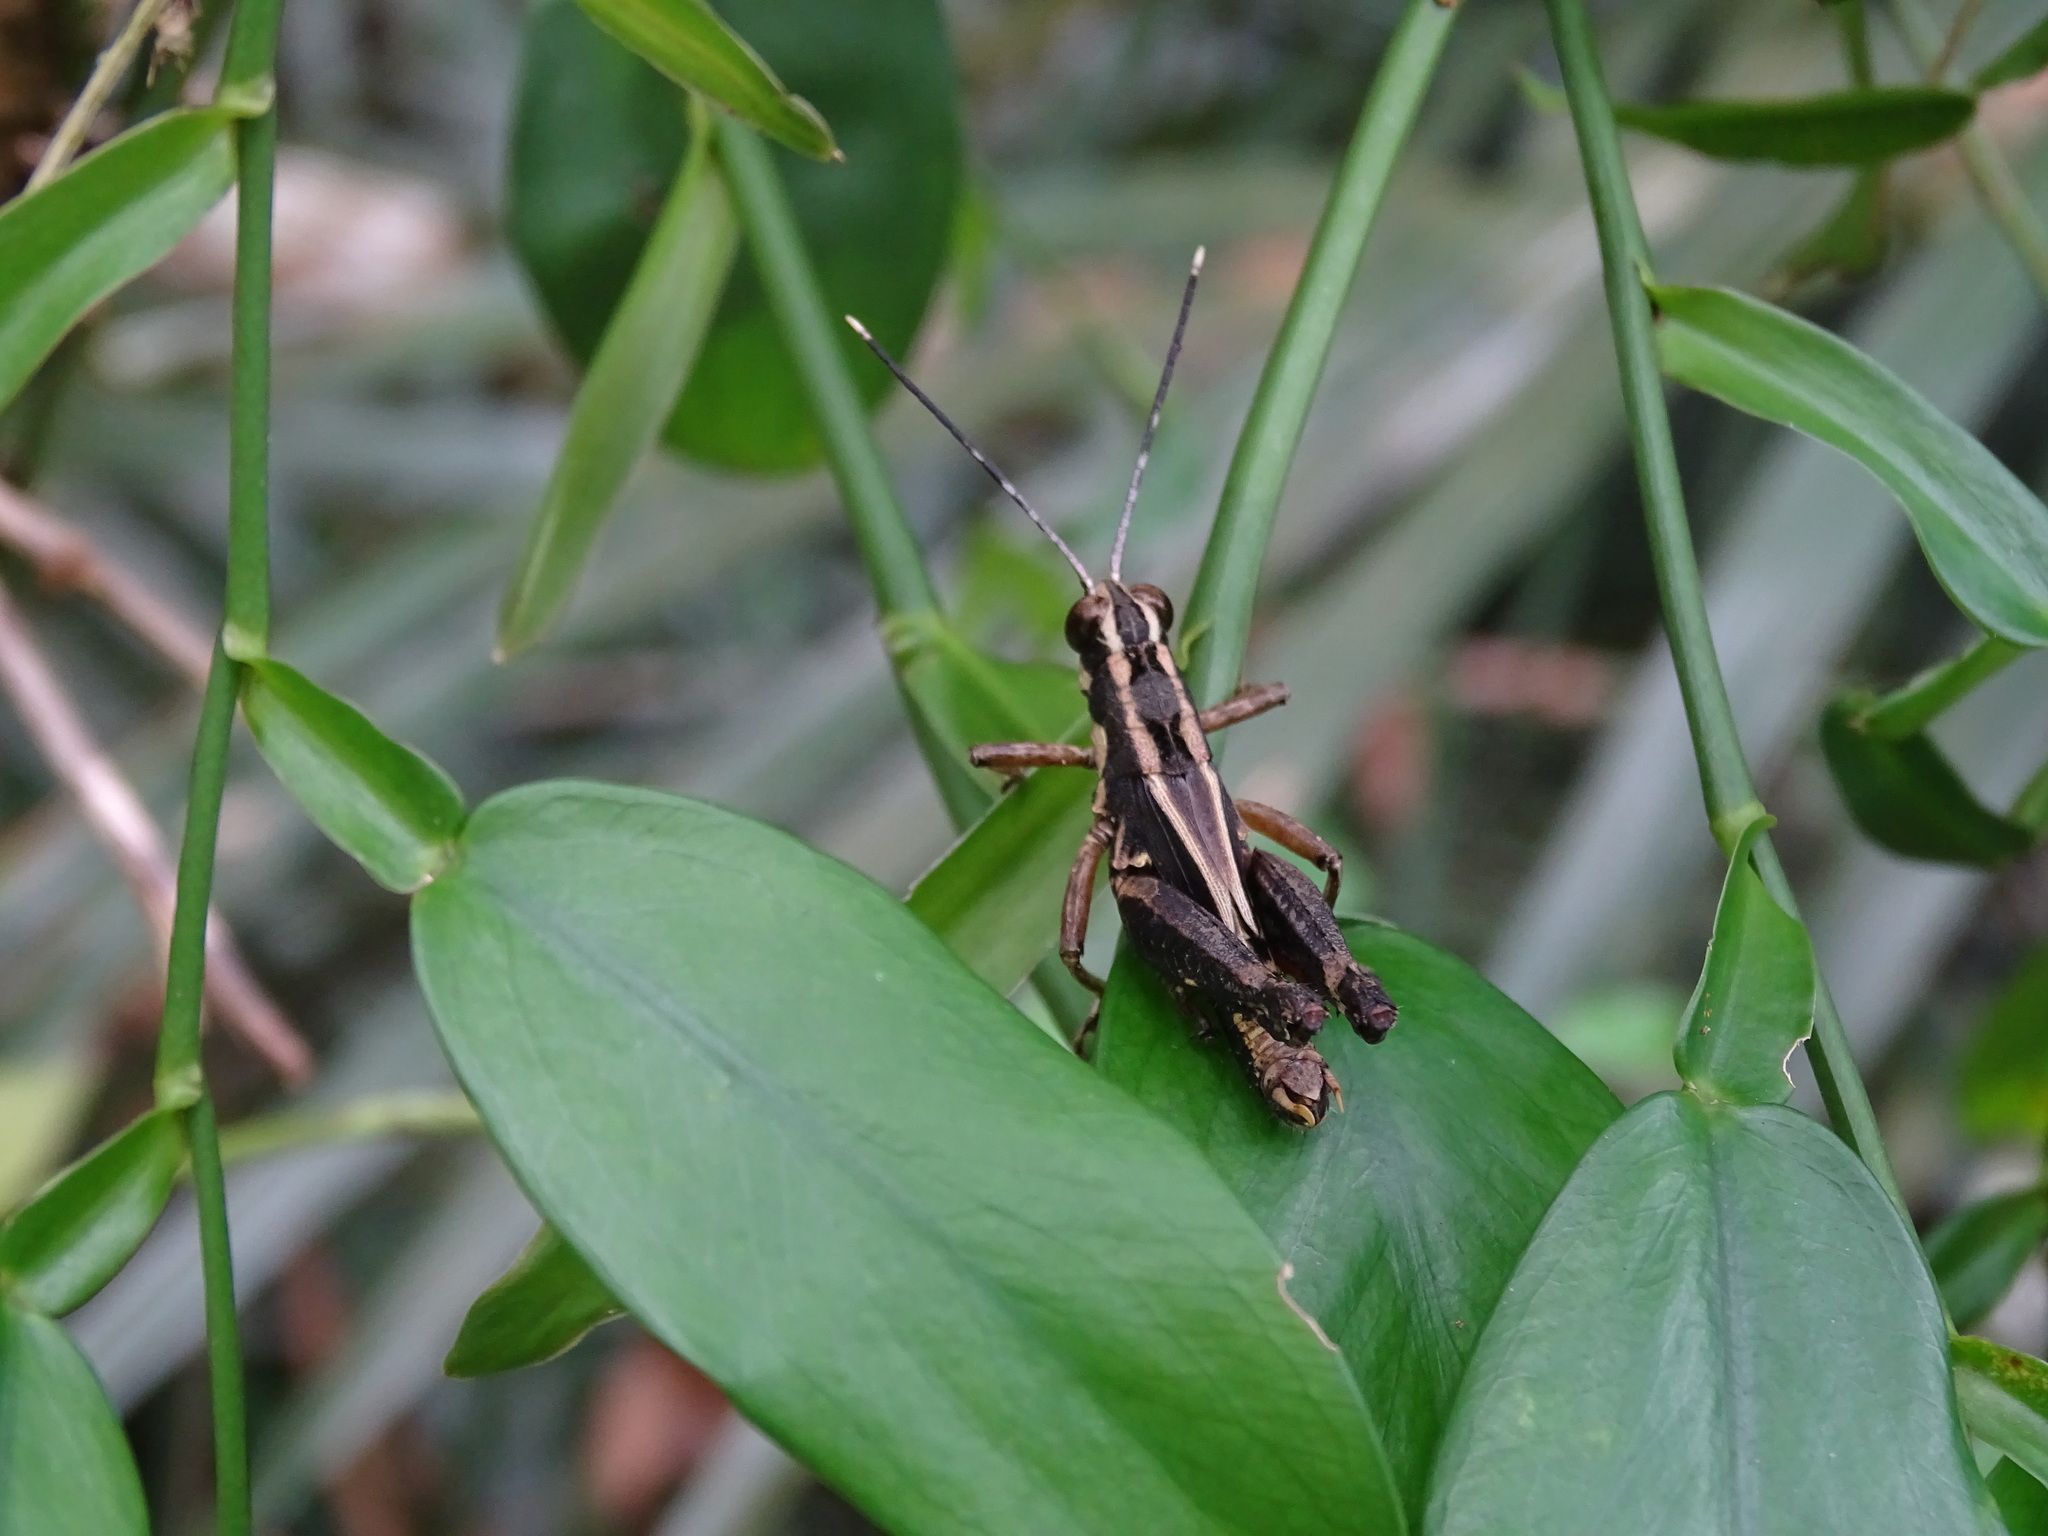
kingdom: Animalia
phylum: Arthropoda
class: Insecta
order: Orthoptera
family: Acrididae
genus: Traulia
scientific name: Traulia ornata
